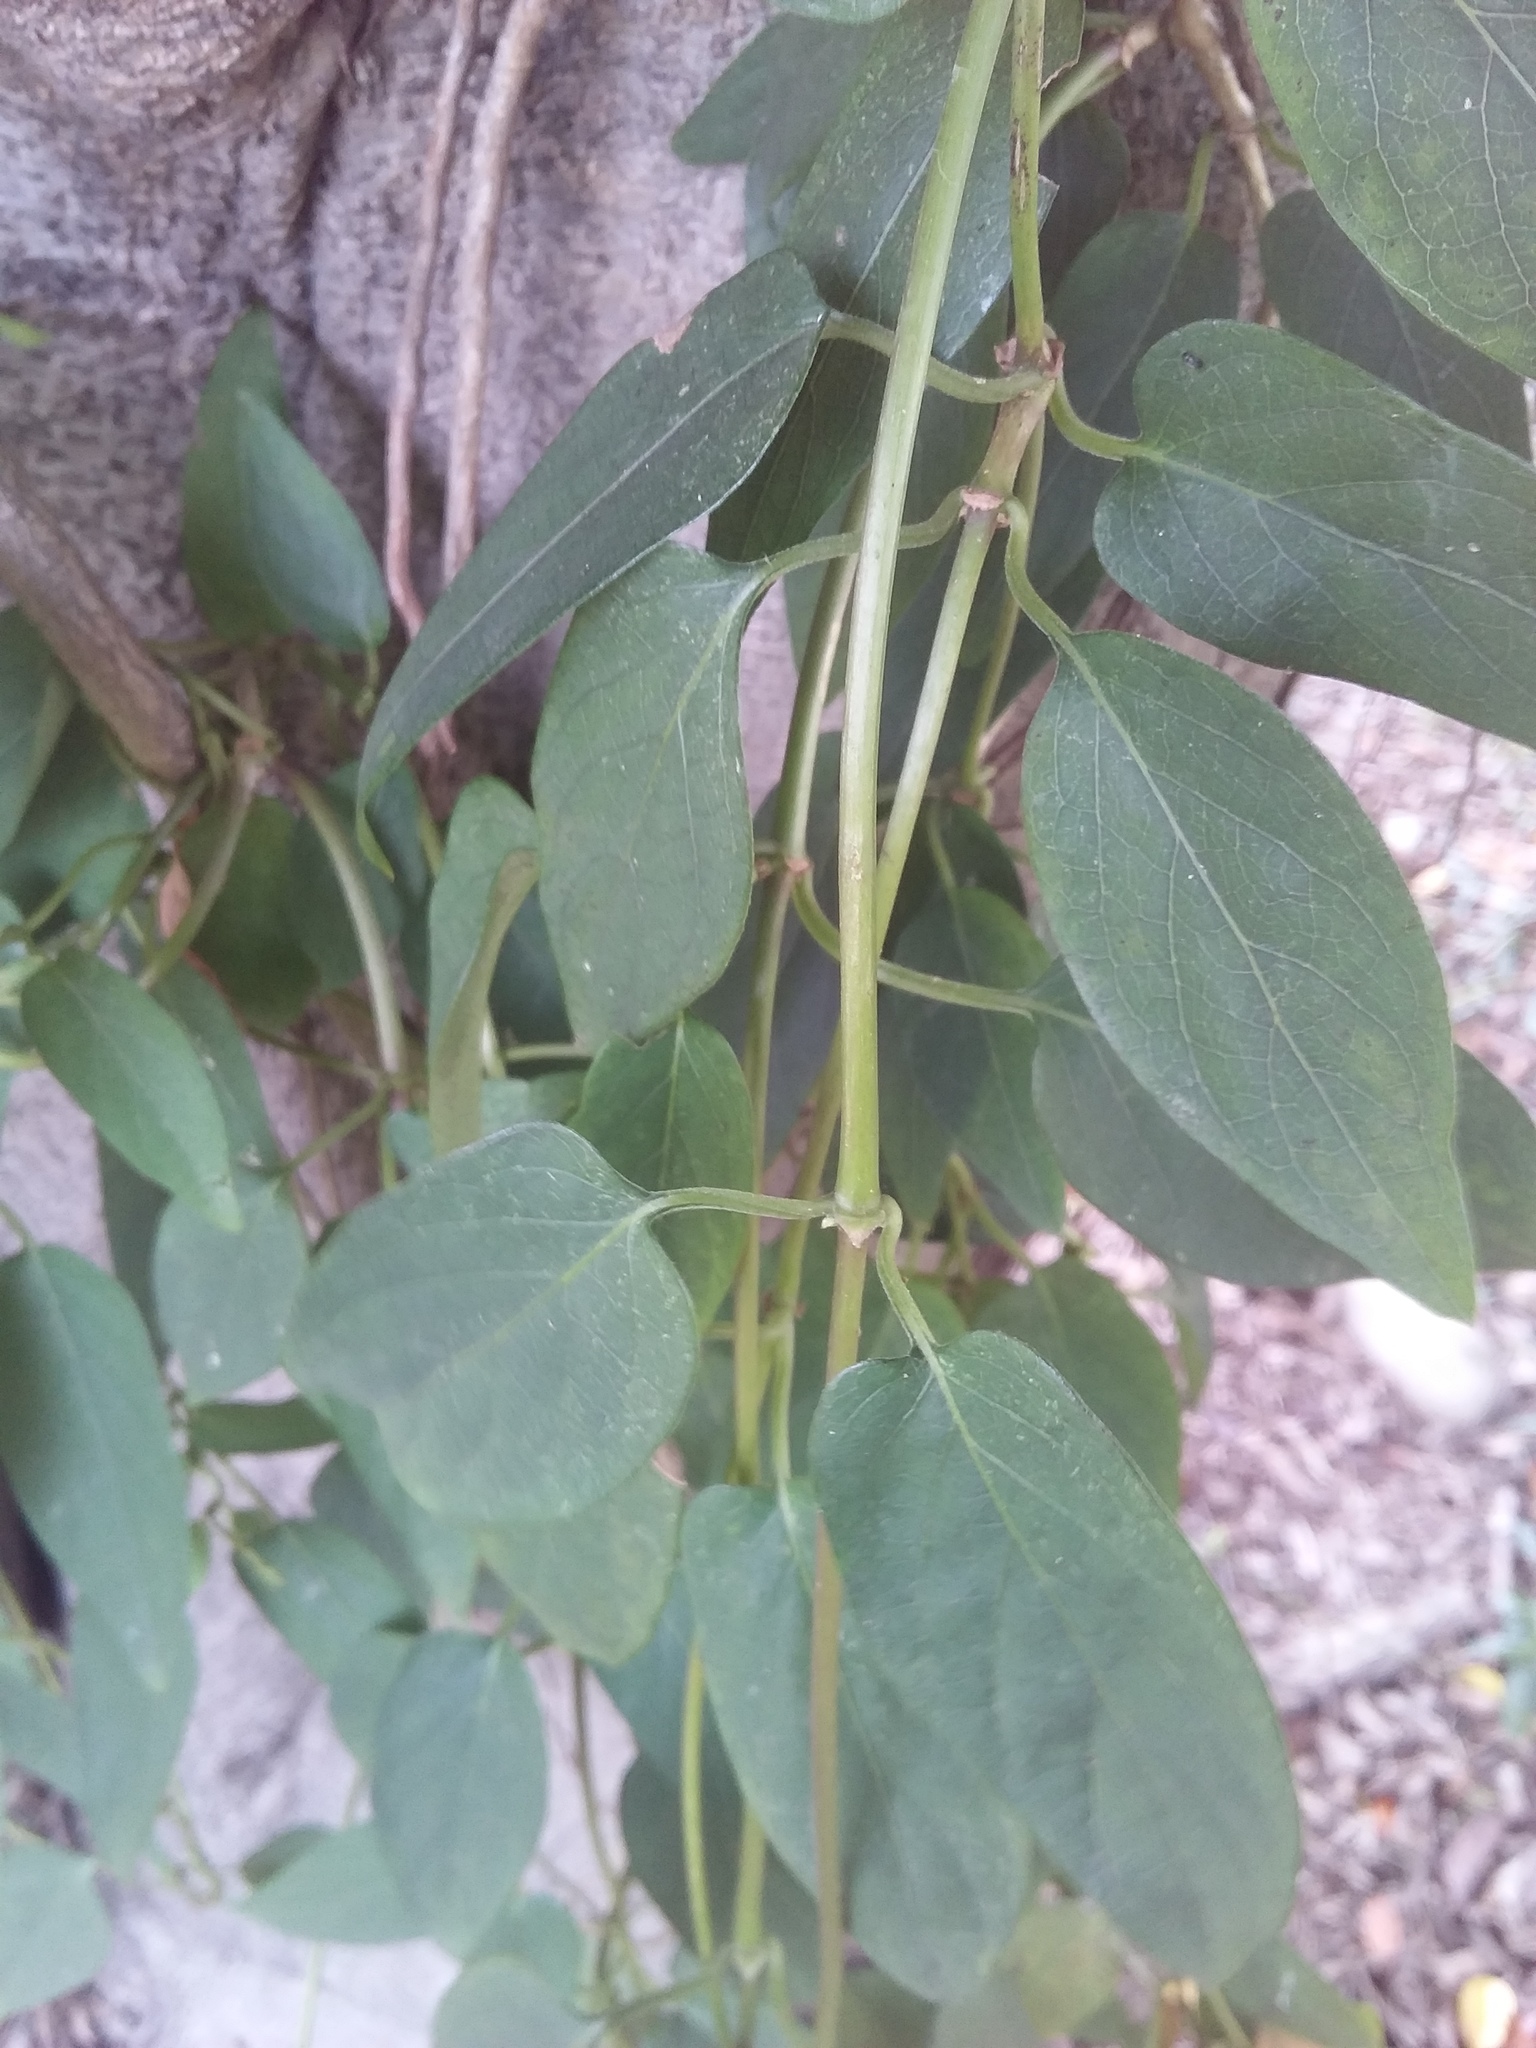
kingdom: Plantae
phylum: Tracheophyta
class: Magnoliopsida
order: Gentianales
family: Rubiaceae
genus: Paederia
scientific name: Paederia cavaleriei
